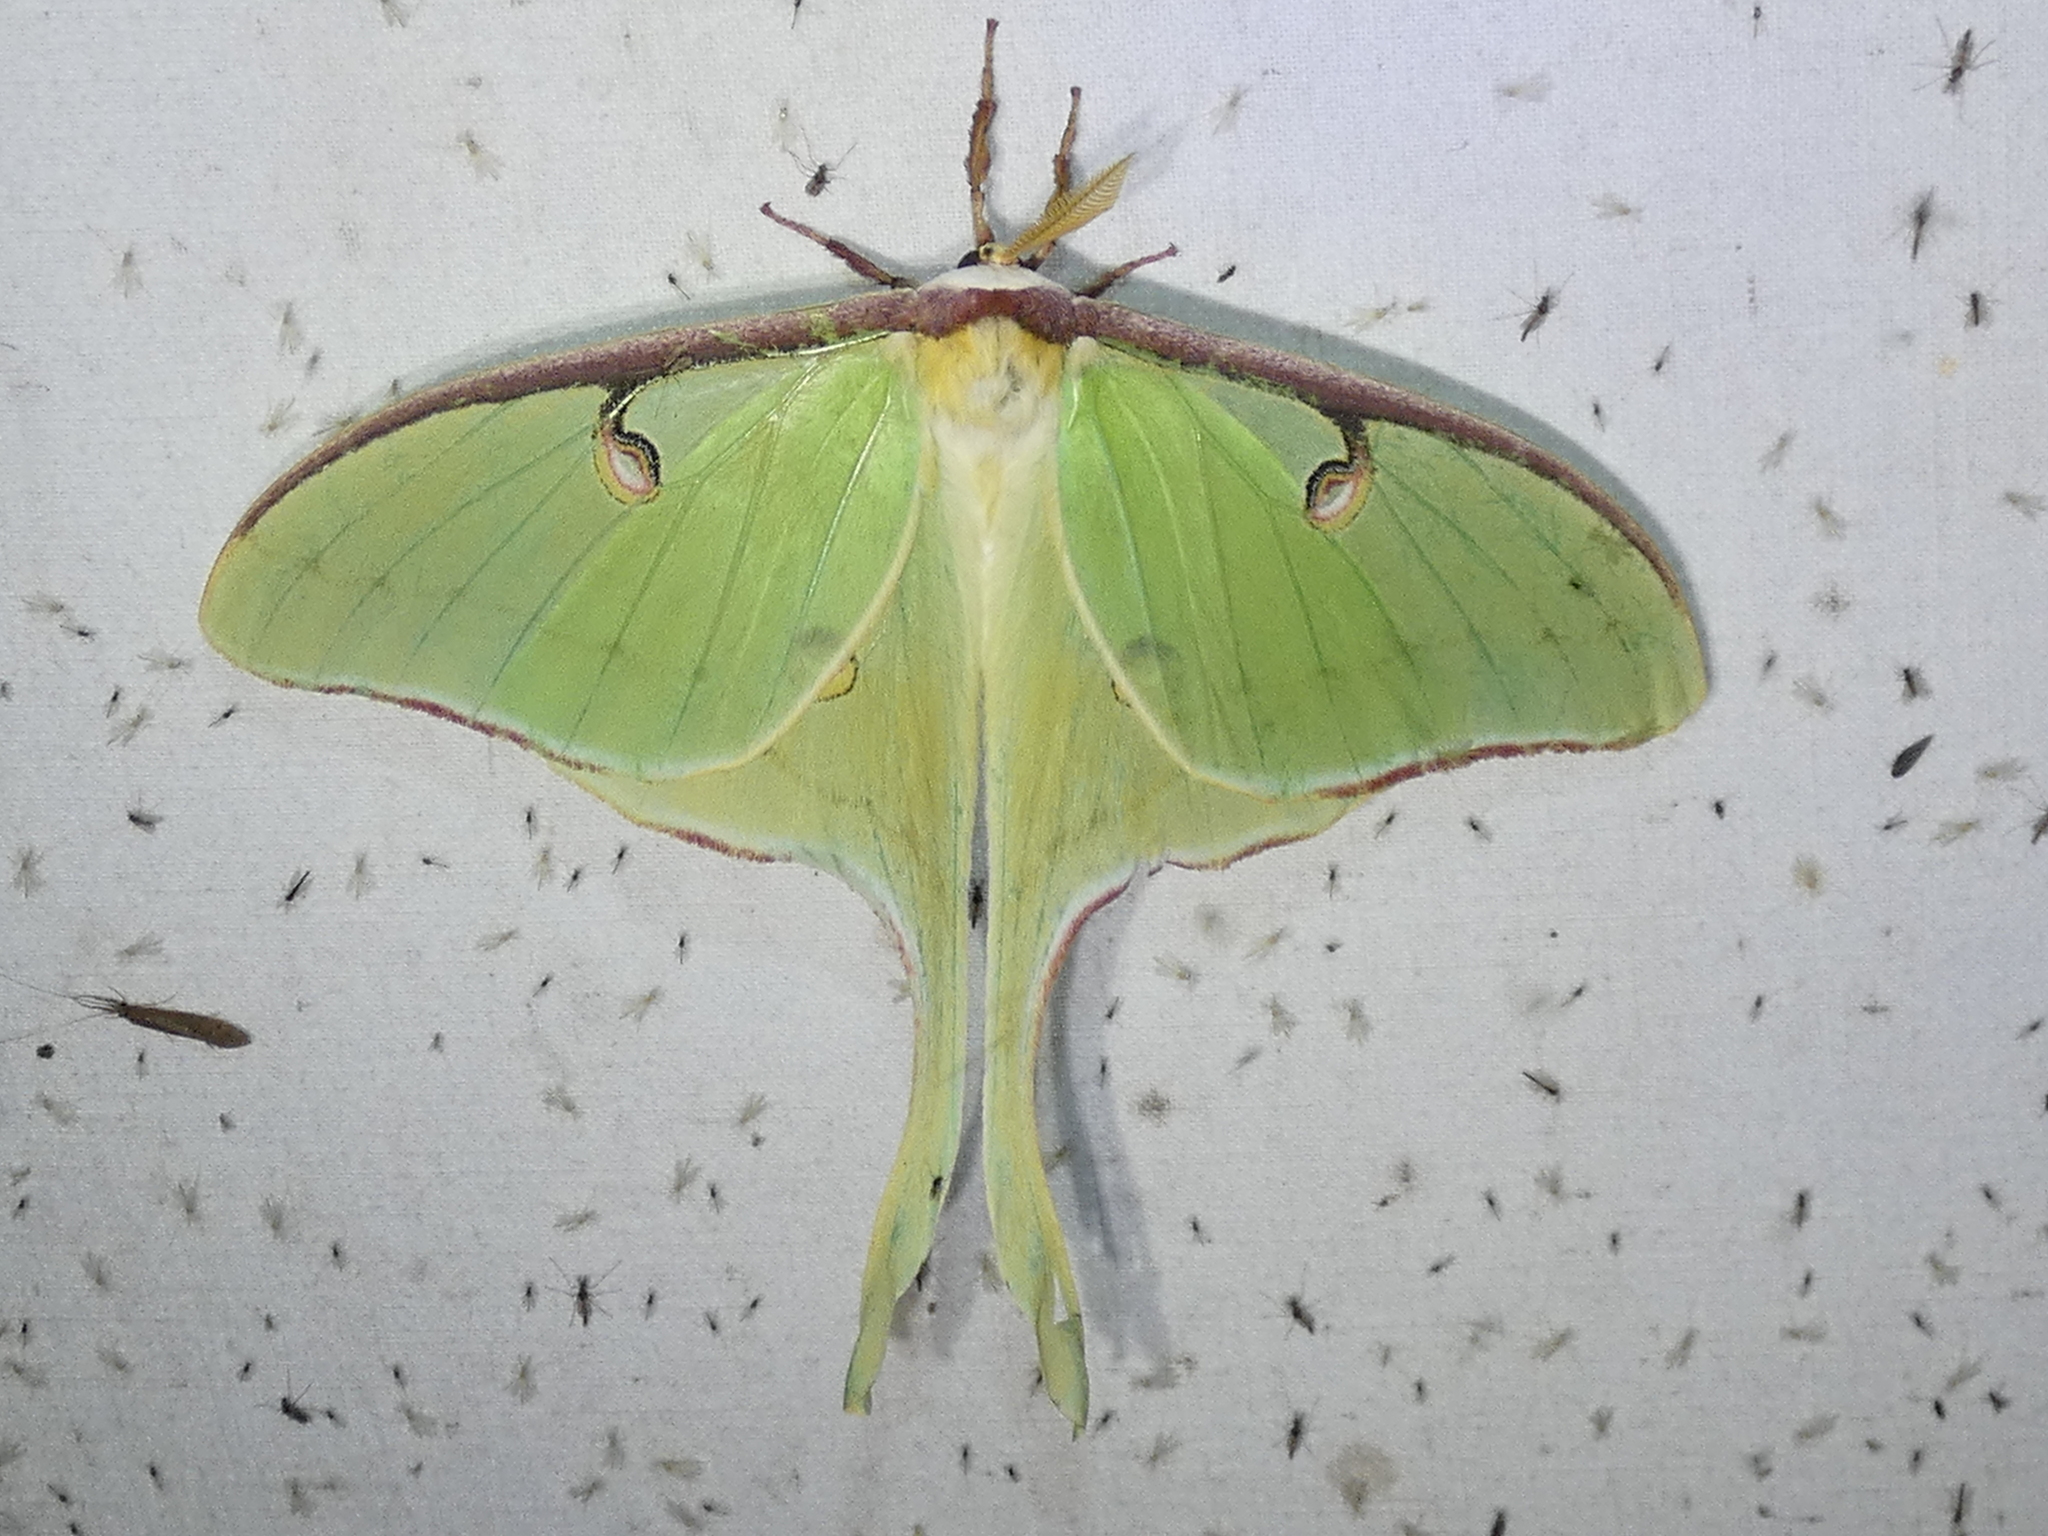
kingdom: Animalia
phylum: Arthropoda
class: Insecta
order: Lepidoptera
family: Saturniidae
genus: Actias
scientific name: Actias luna
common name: Luna moth
